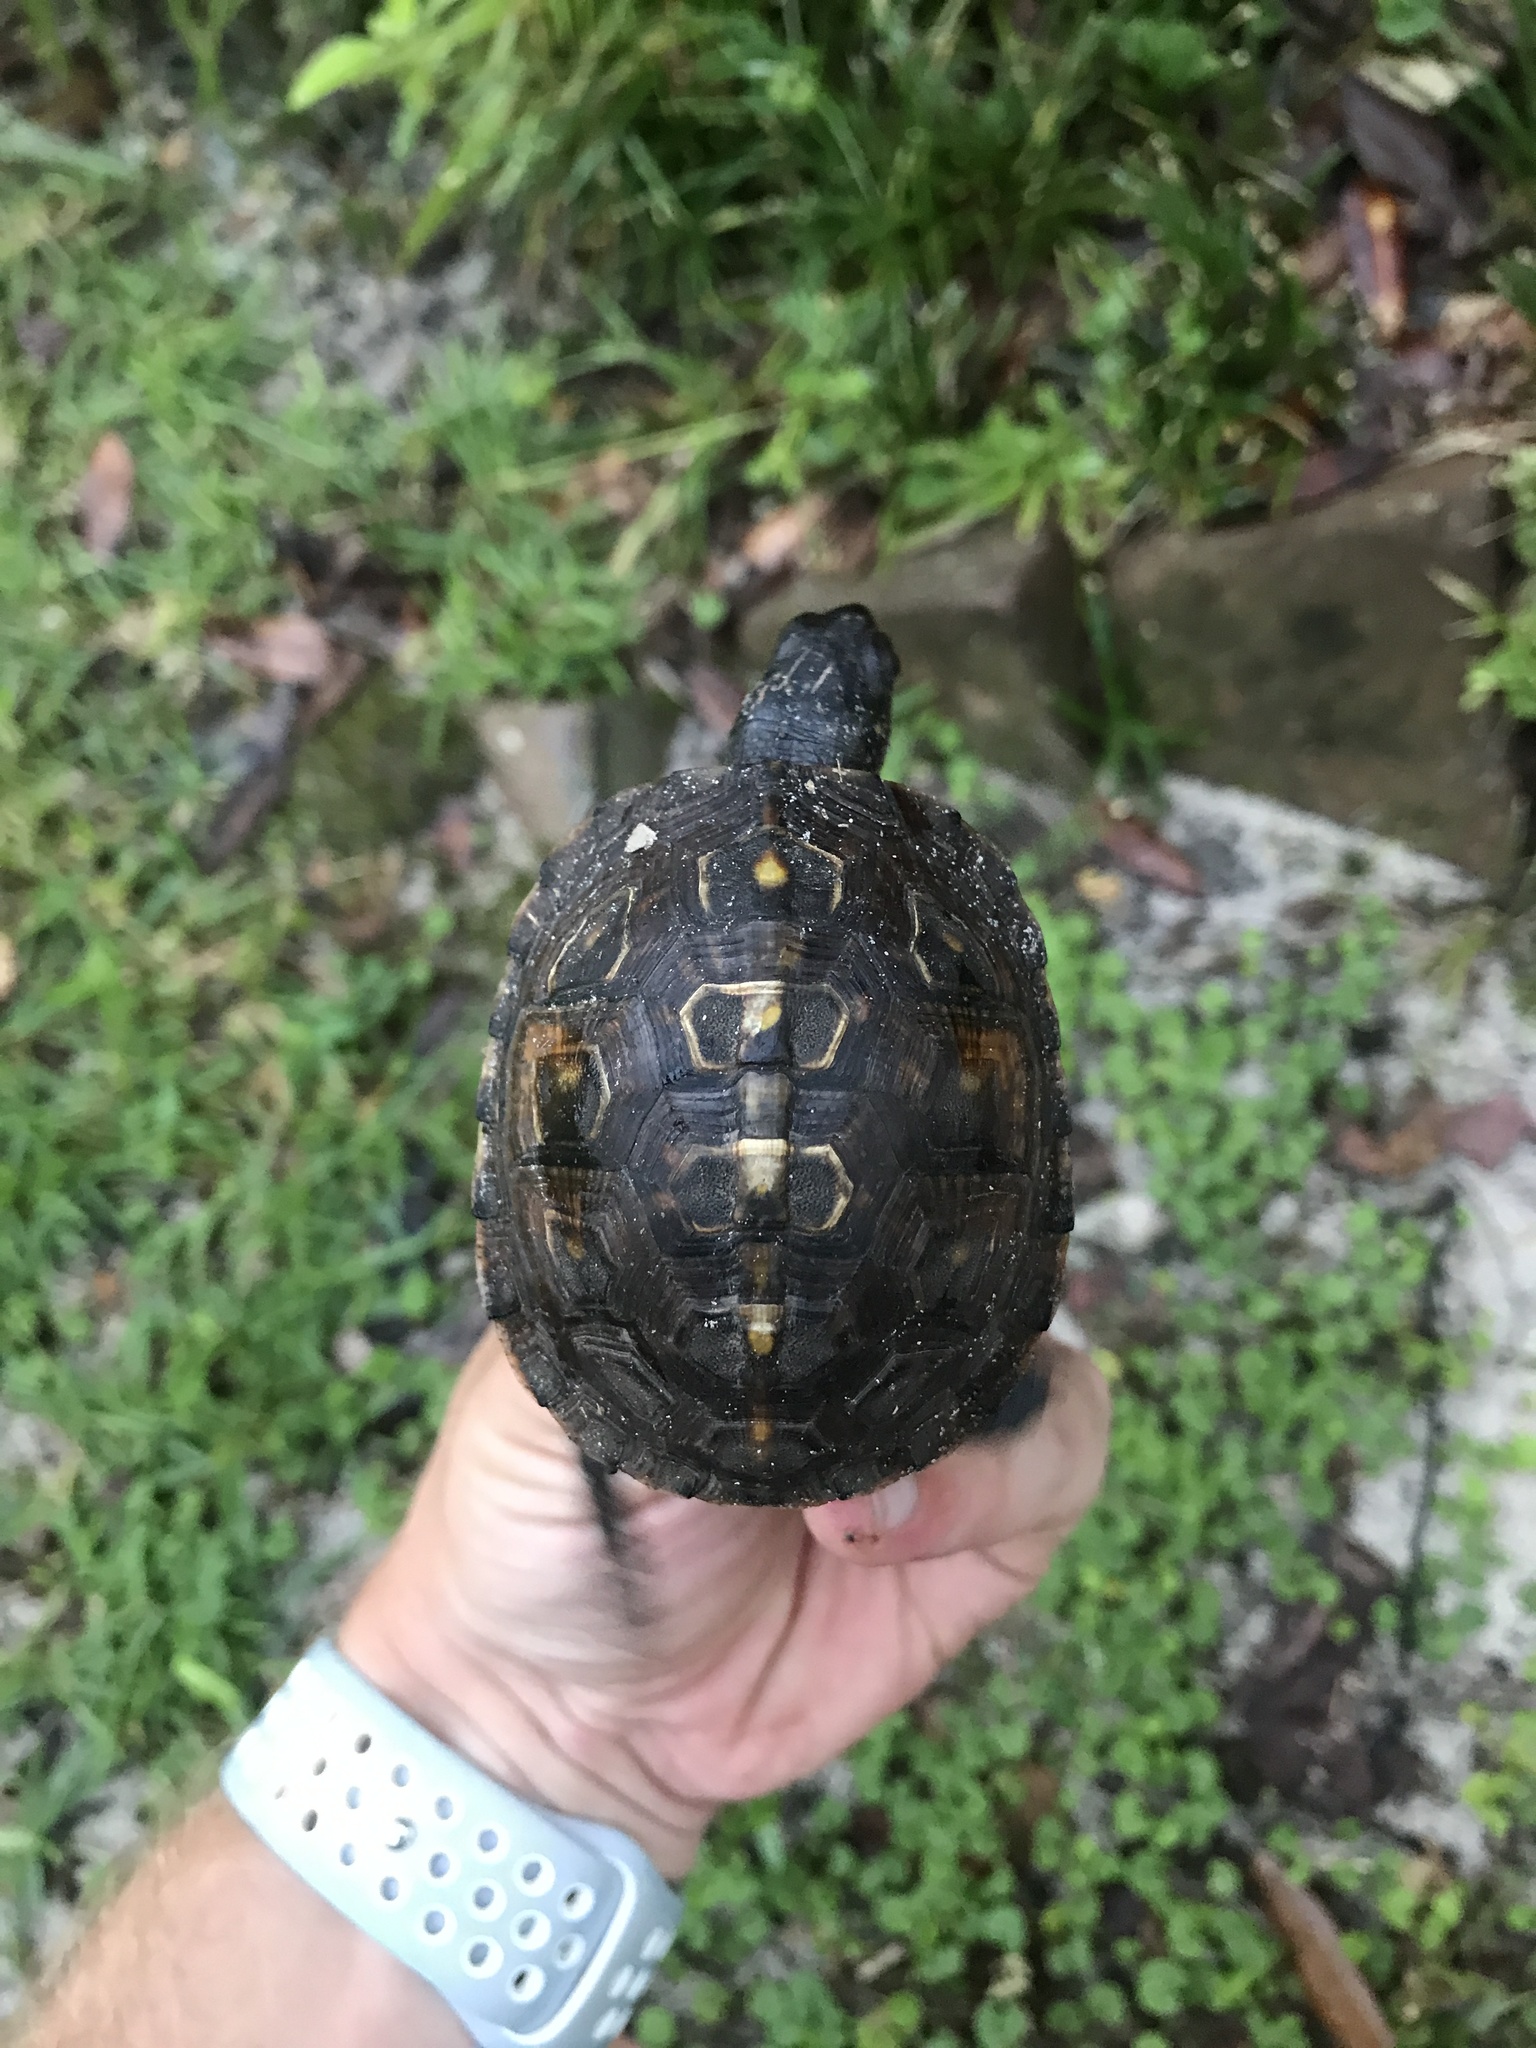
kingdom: Animalia
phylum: Chordata
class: Testudines
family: Emydidae
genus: Terrapene
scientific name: Terrapene carolina
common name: Common box turtle
